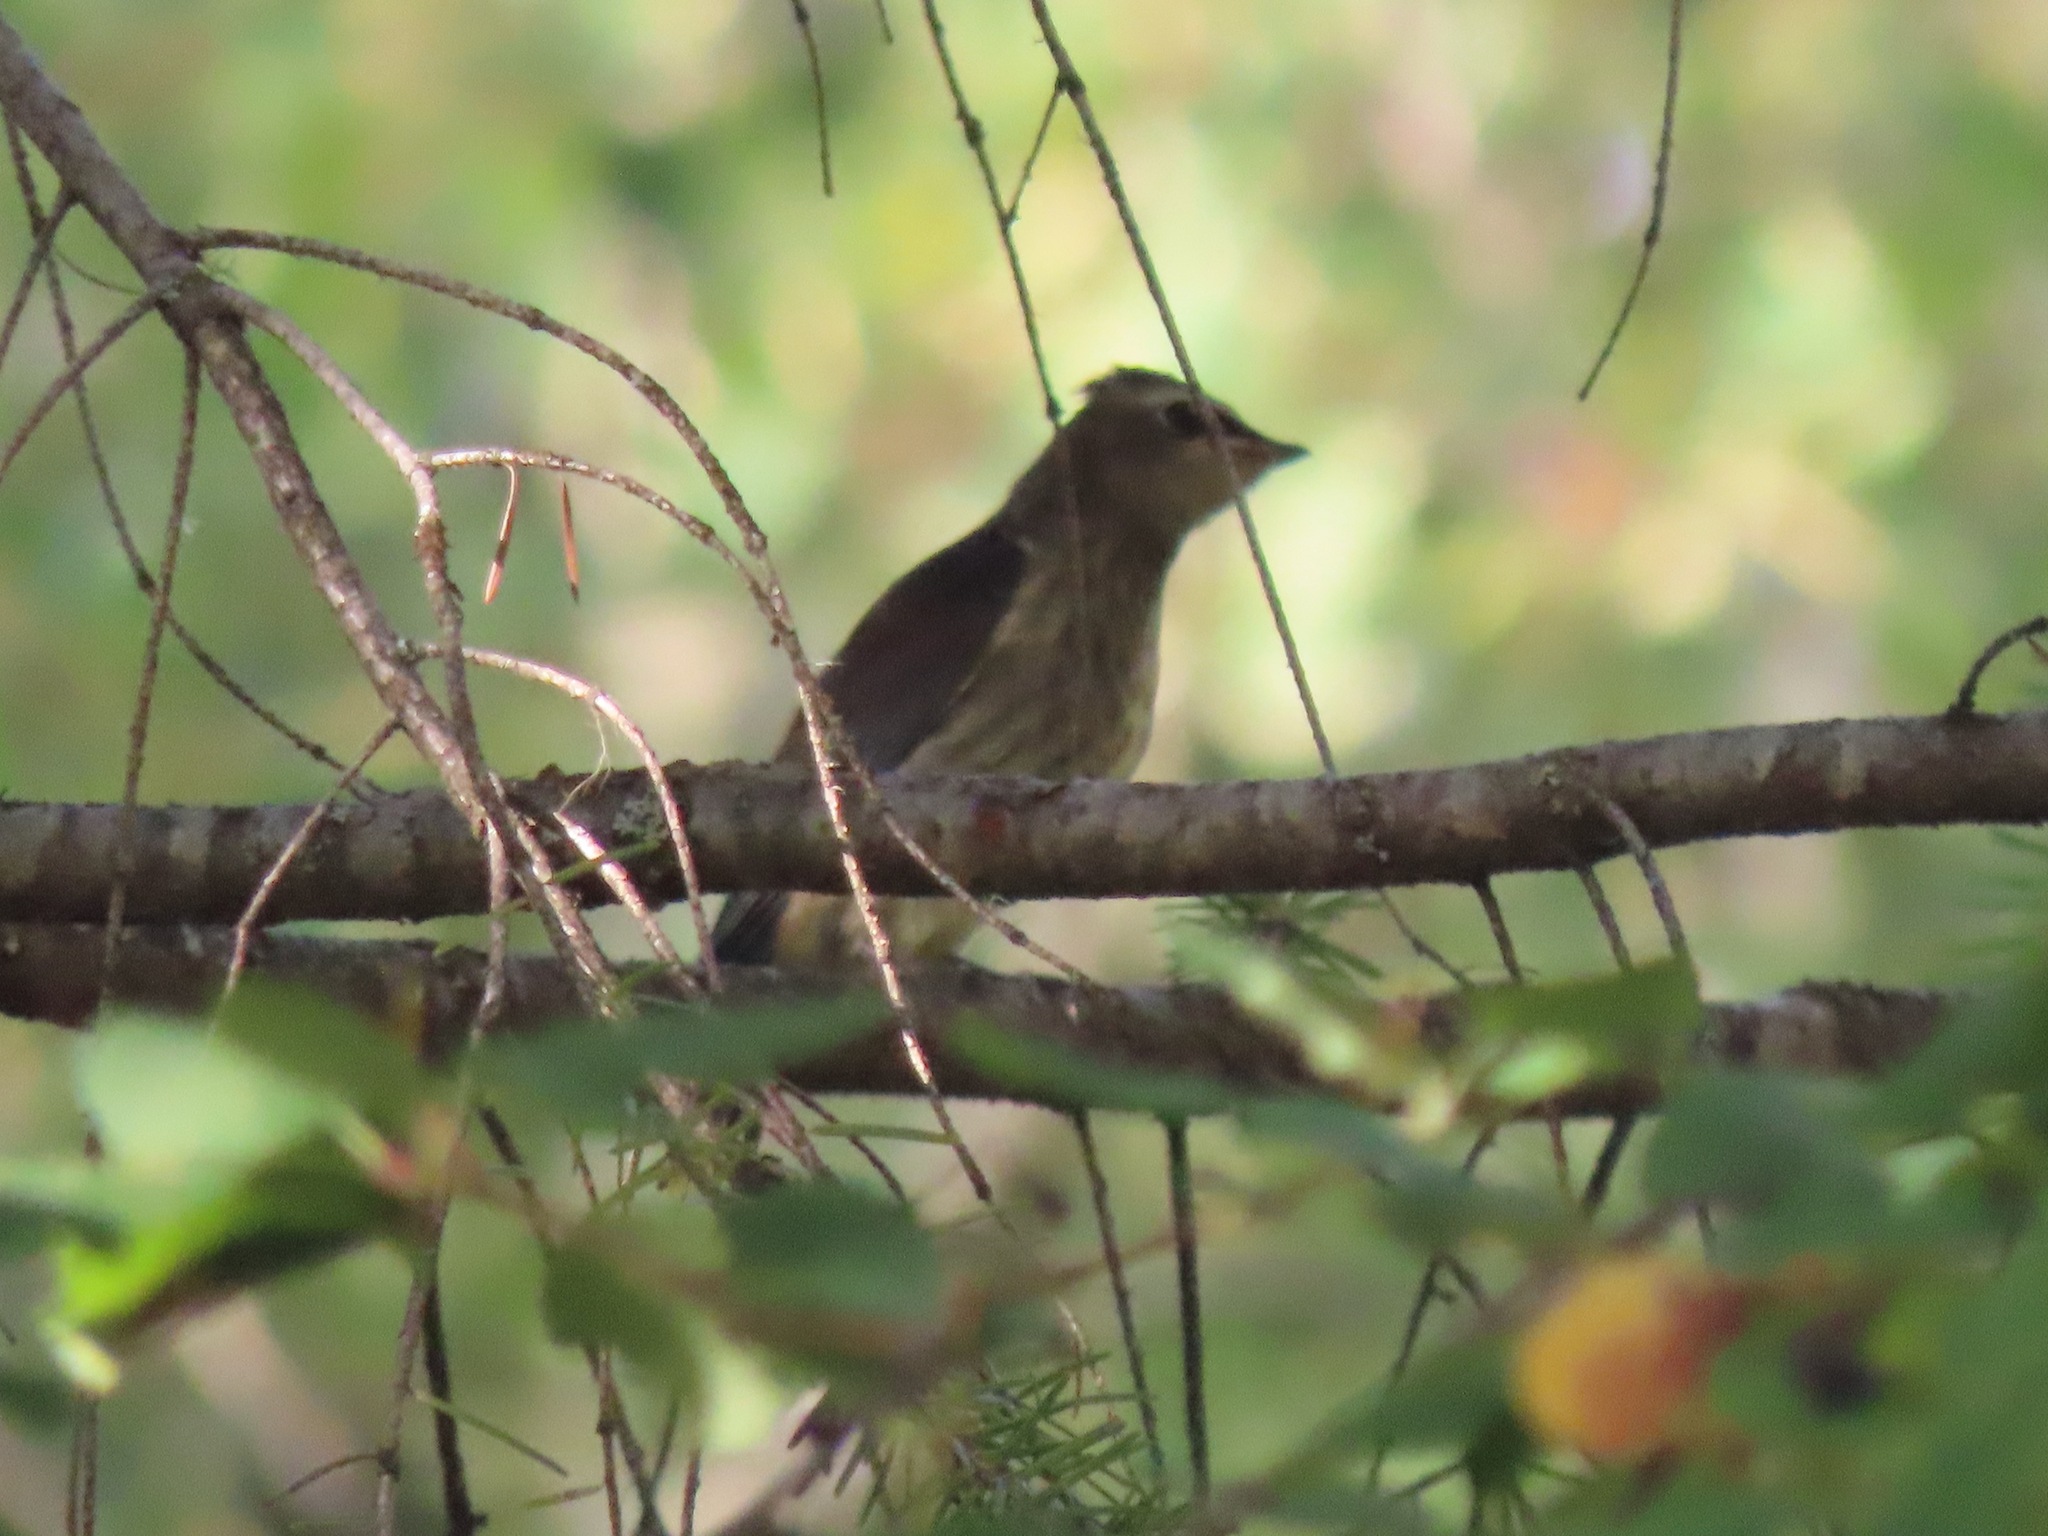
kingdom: Animalia
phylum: Chordata
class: Aves
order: Passeriformes
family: Bombycillidae
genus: Bombycilla
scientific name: Bombycilla cedrorum
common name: Cedar waxwing
